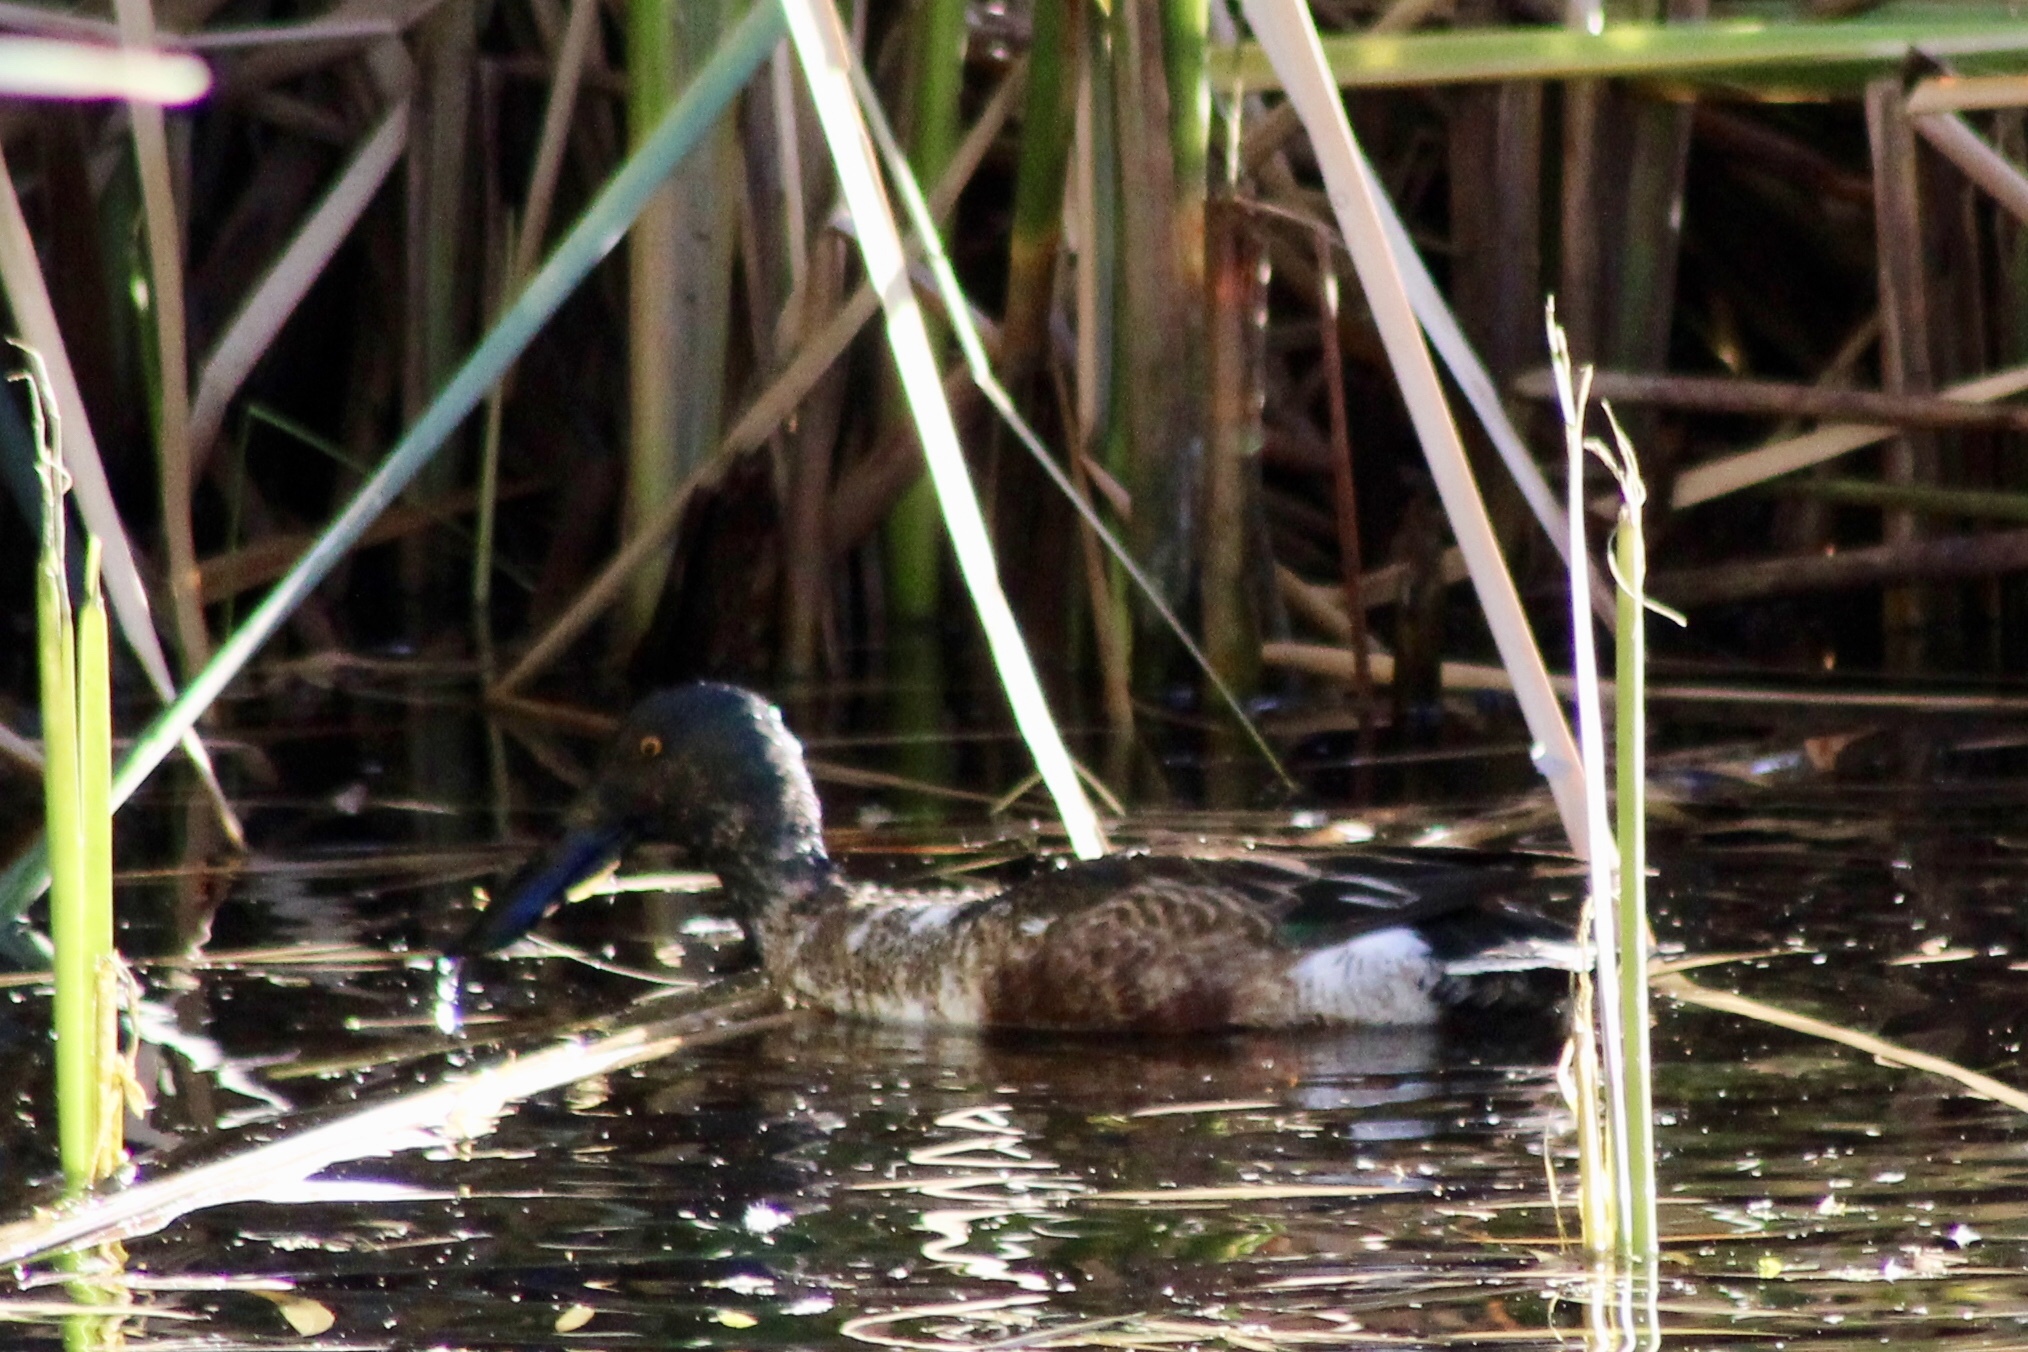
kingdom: Animalia
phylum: Chordata
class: Aves
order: Anseriformes
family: Anatidae
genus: Spatula
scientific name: Spatula clypeata
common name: Northern shoveler
